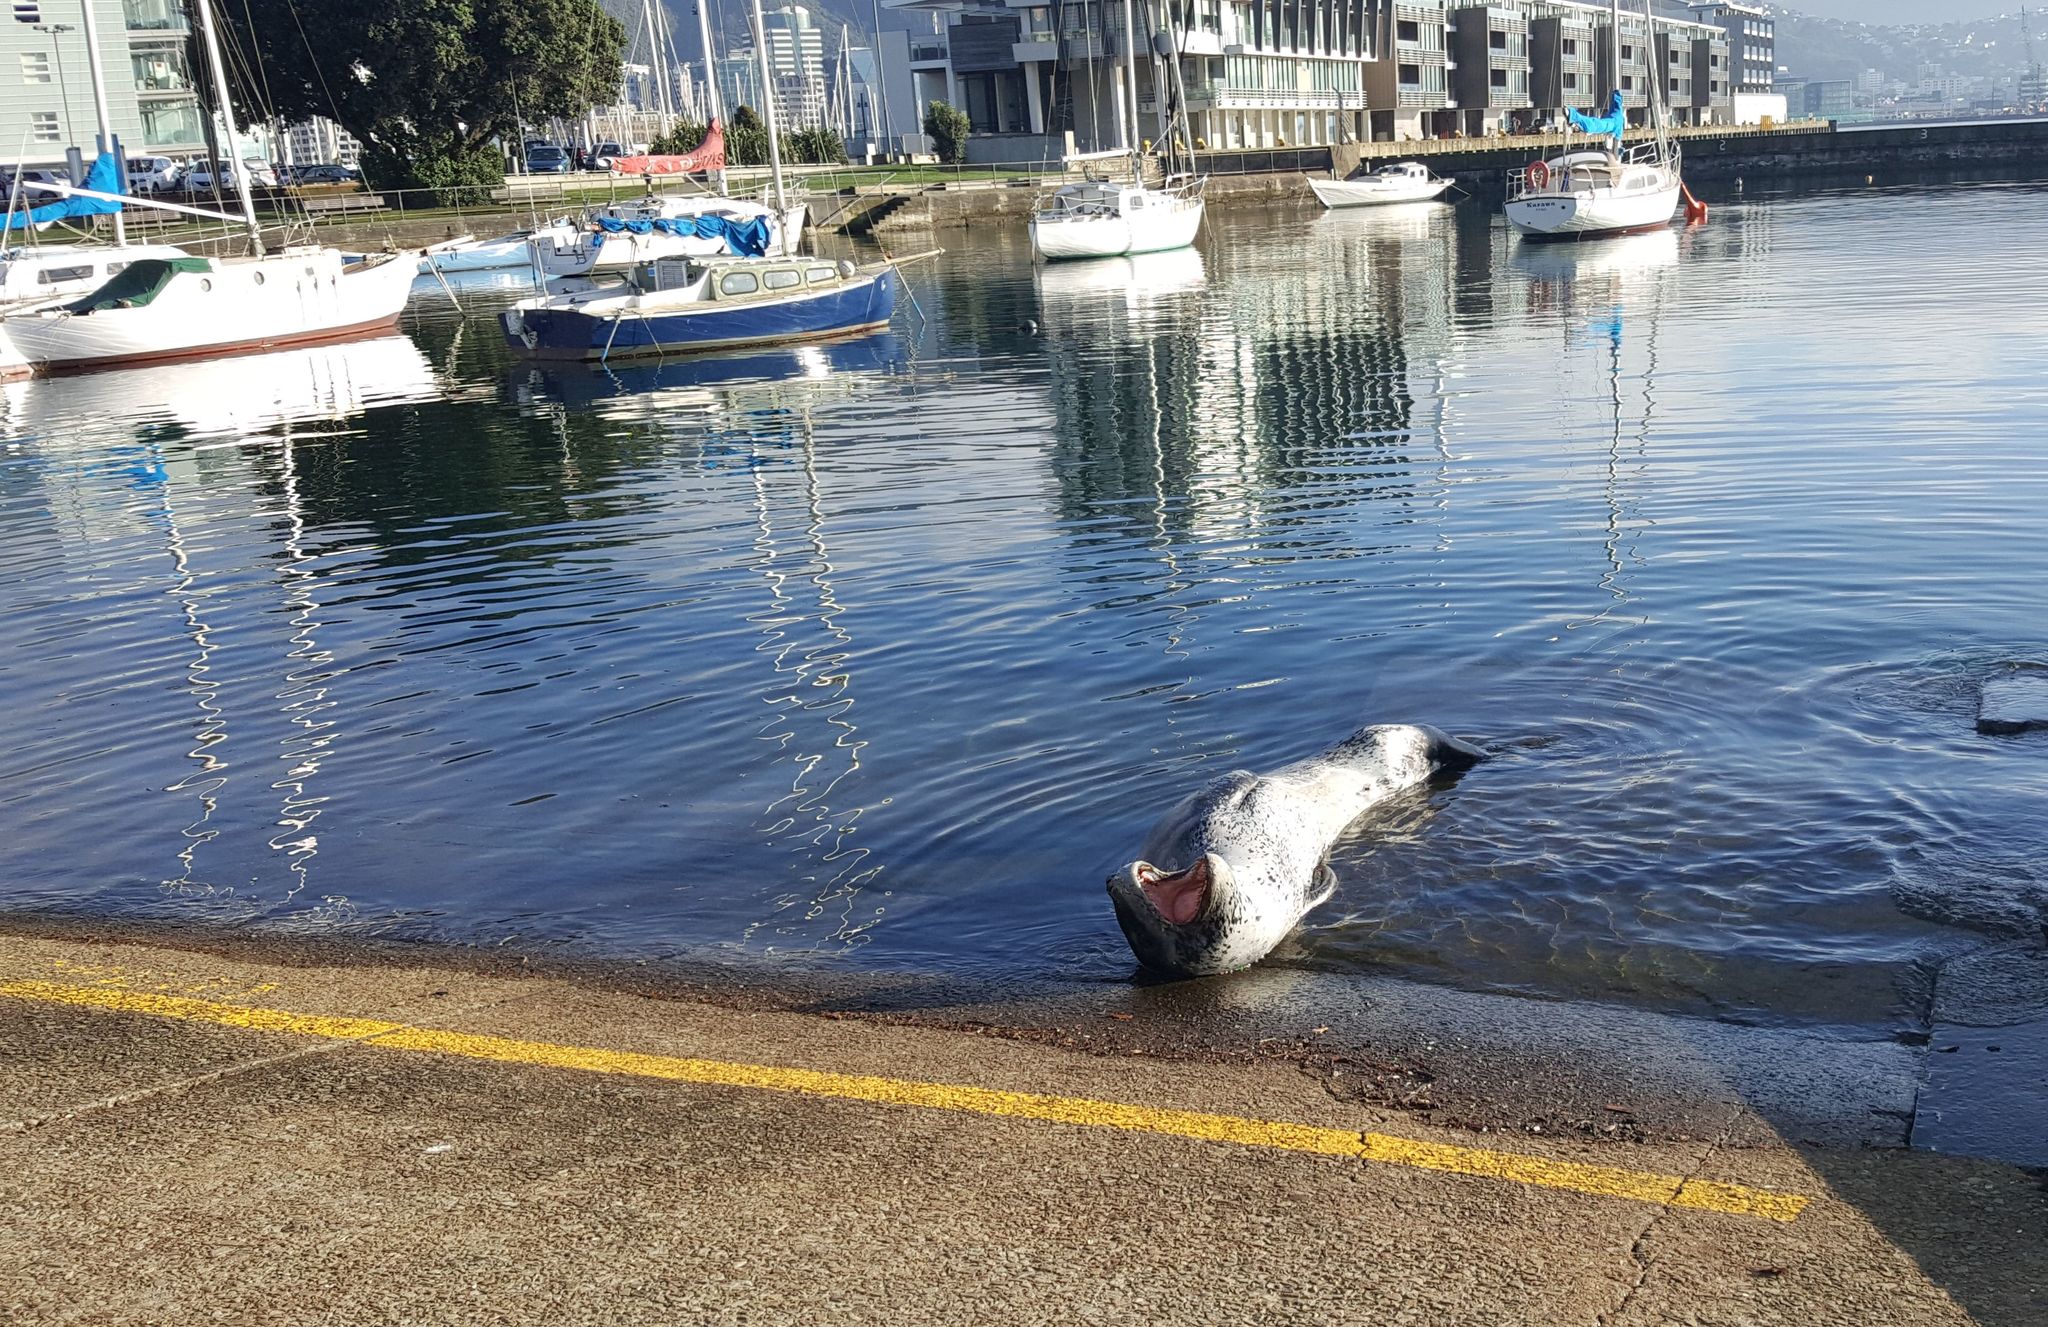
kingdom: Animalia
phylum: Chordata
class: Mammalia
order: Carnivora
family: Phocidae
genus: Hydrurga
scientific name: Hydrurga leptonyx
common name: Leopard seal
